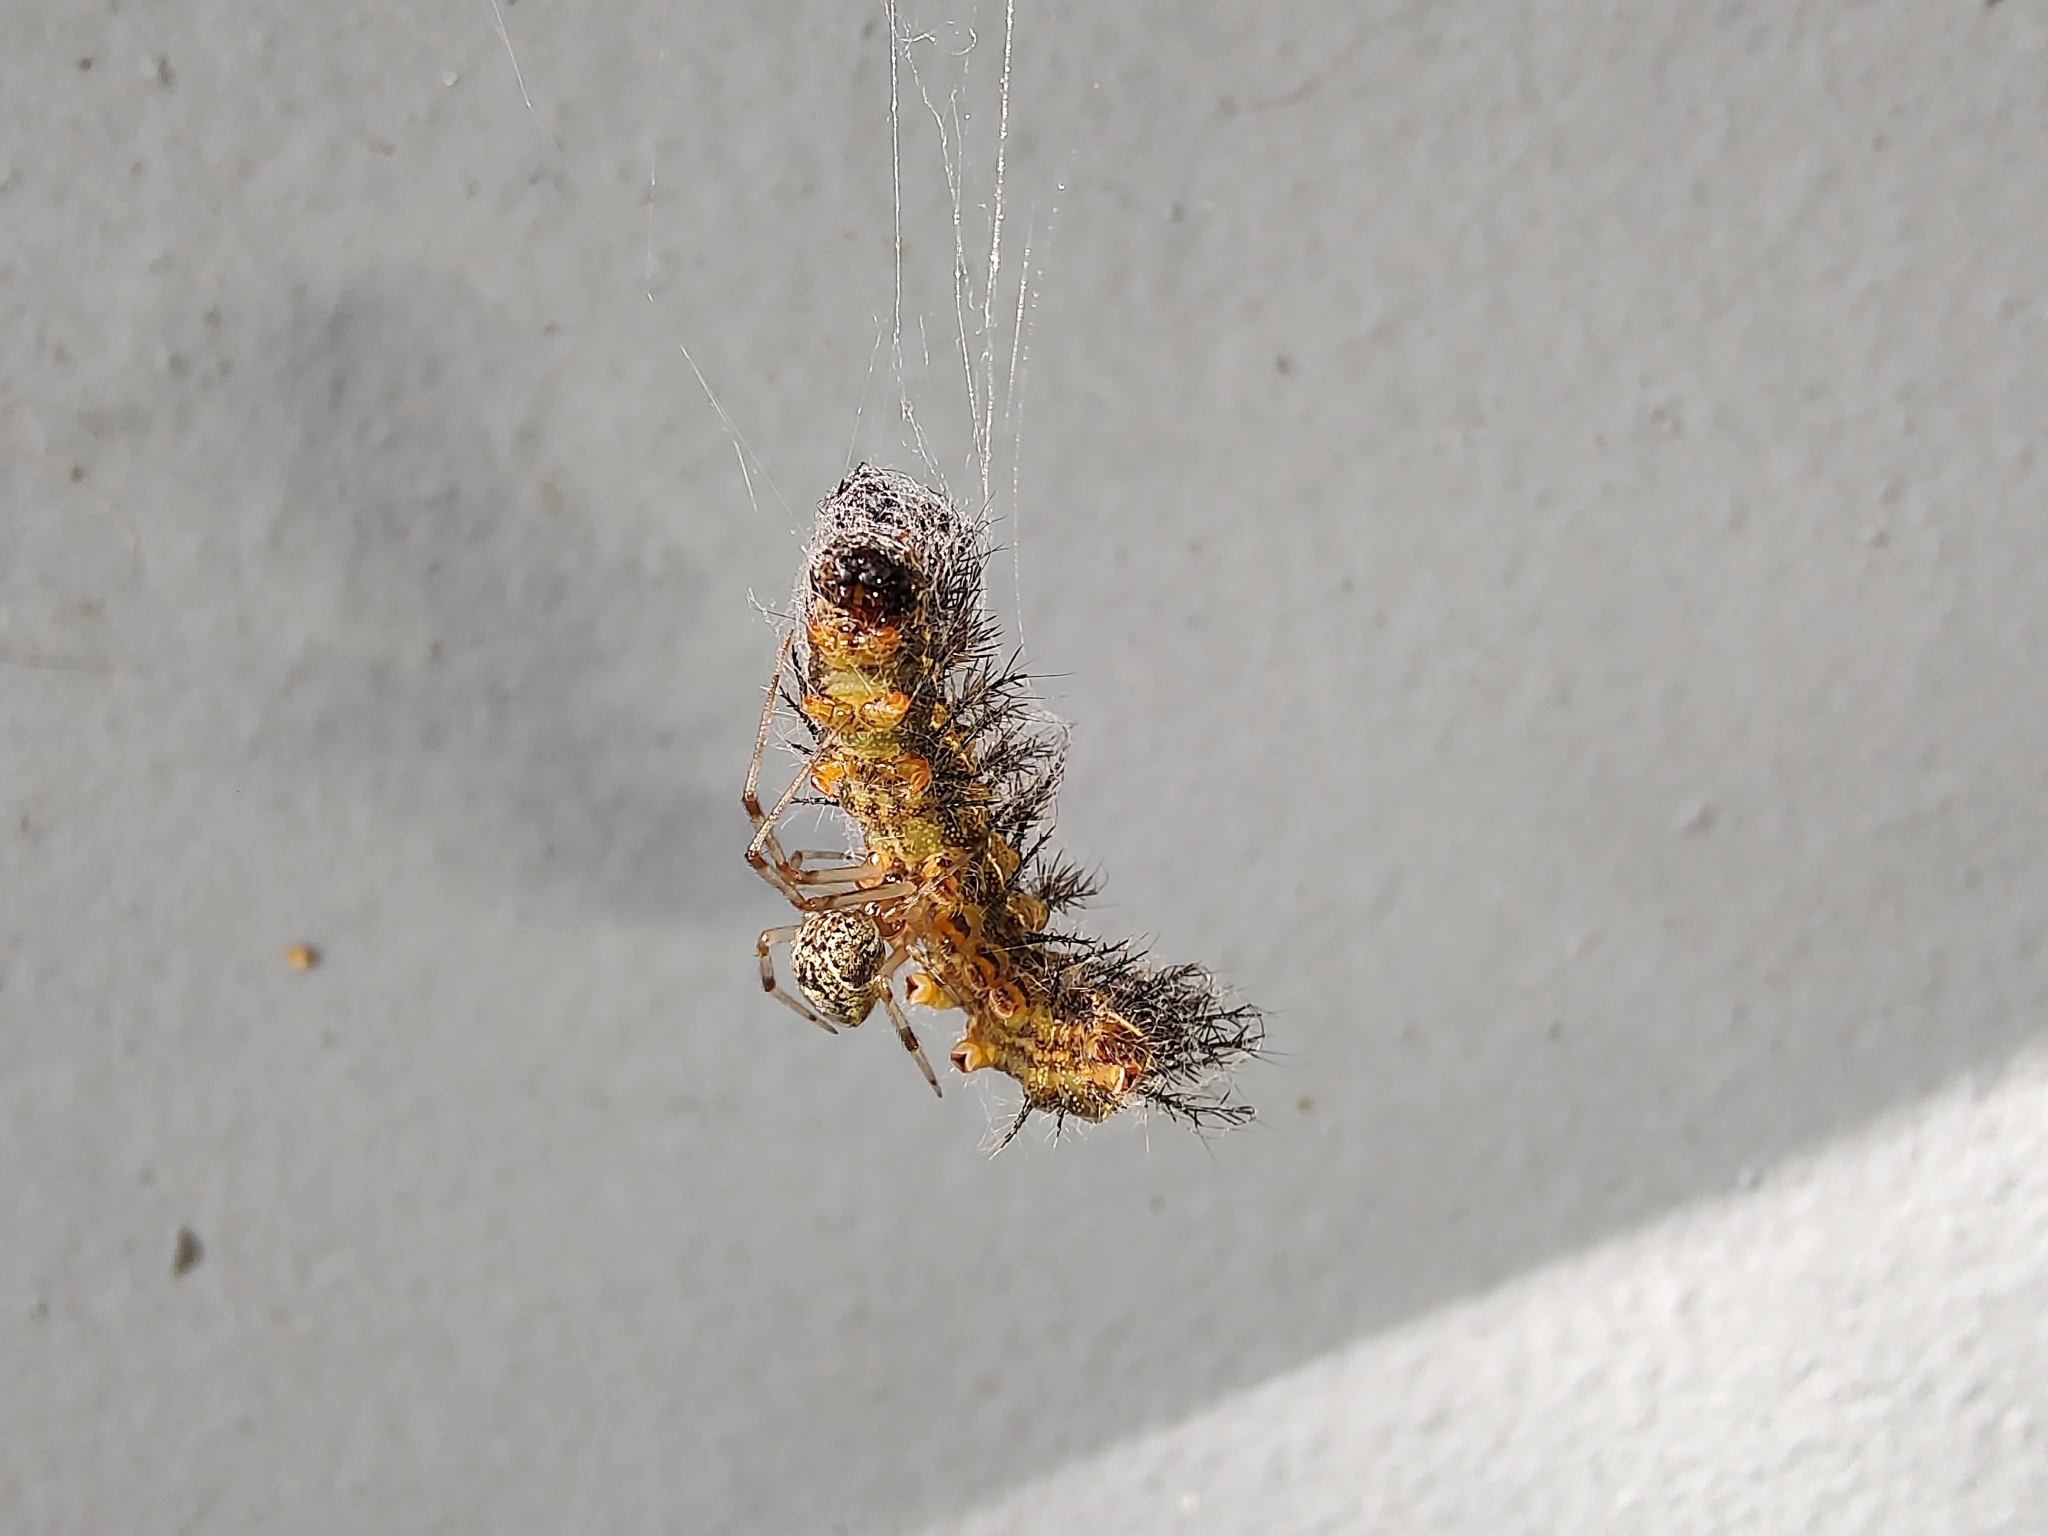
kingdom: Animalia
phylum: Arthropoda
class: Arachnida
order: Araneae
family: Theridiidae
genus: Parasteatoda
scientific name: Parasteatoda tepidariorum
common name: Common house spider
